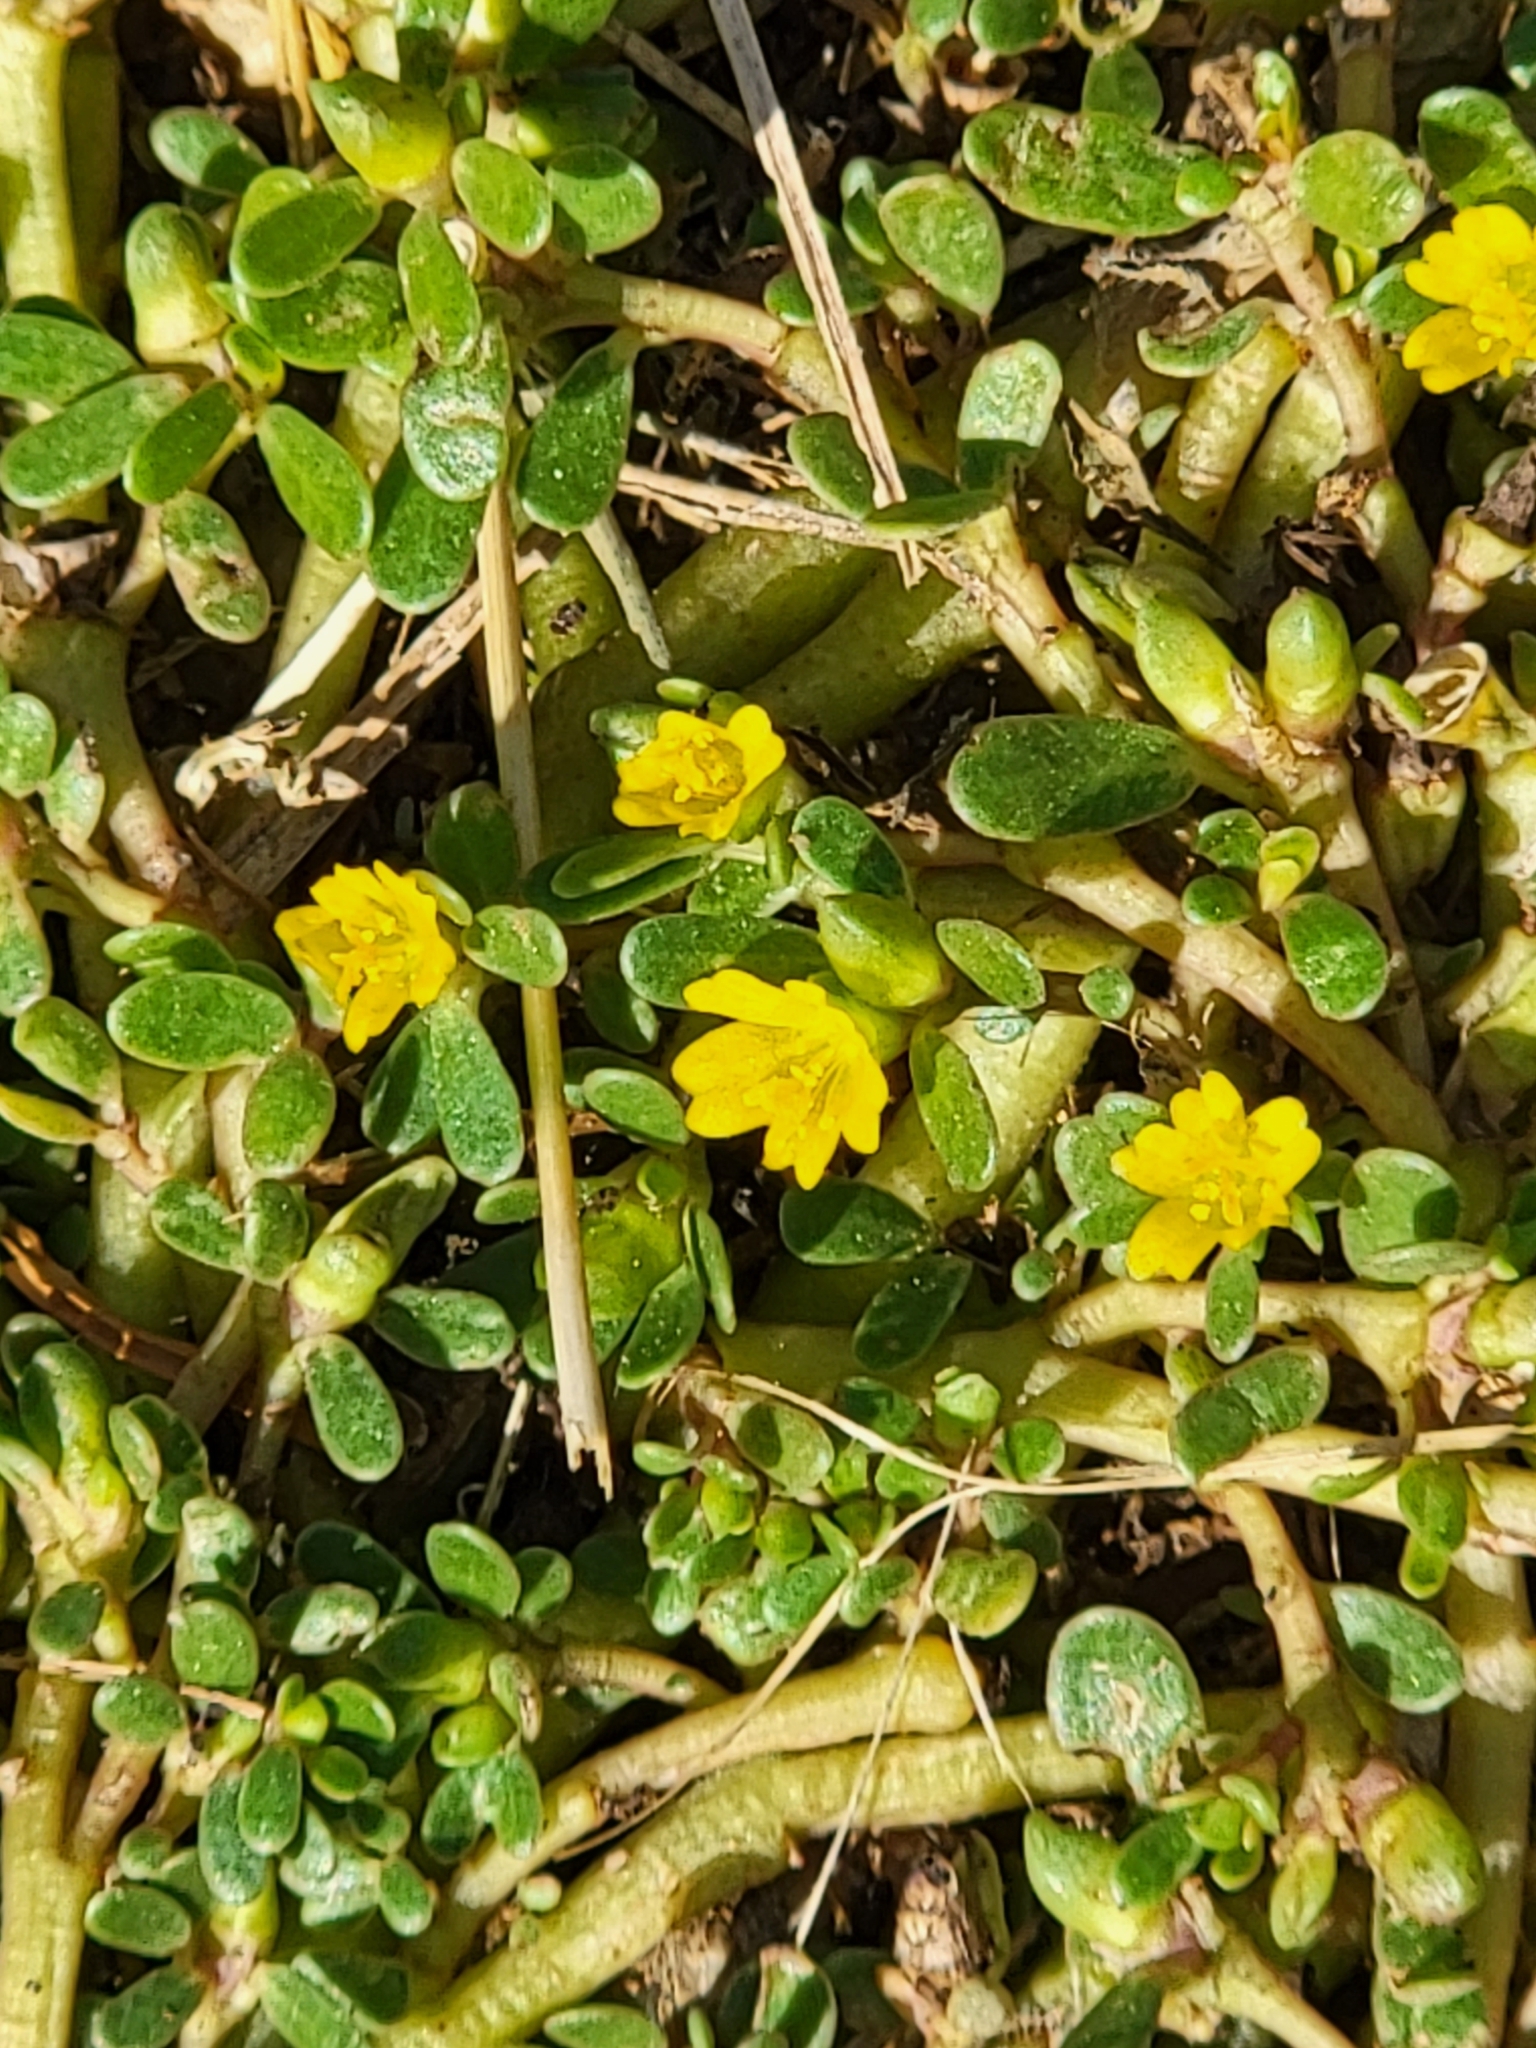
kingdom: Plantae
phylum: Tracheophyta
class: Magnoliopsida
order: Caryophyllales
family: Portulacaceae
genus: Portulaca
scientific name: Portulaca oleracea
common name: Common purslane
